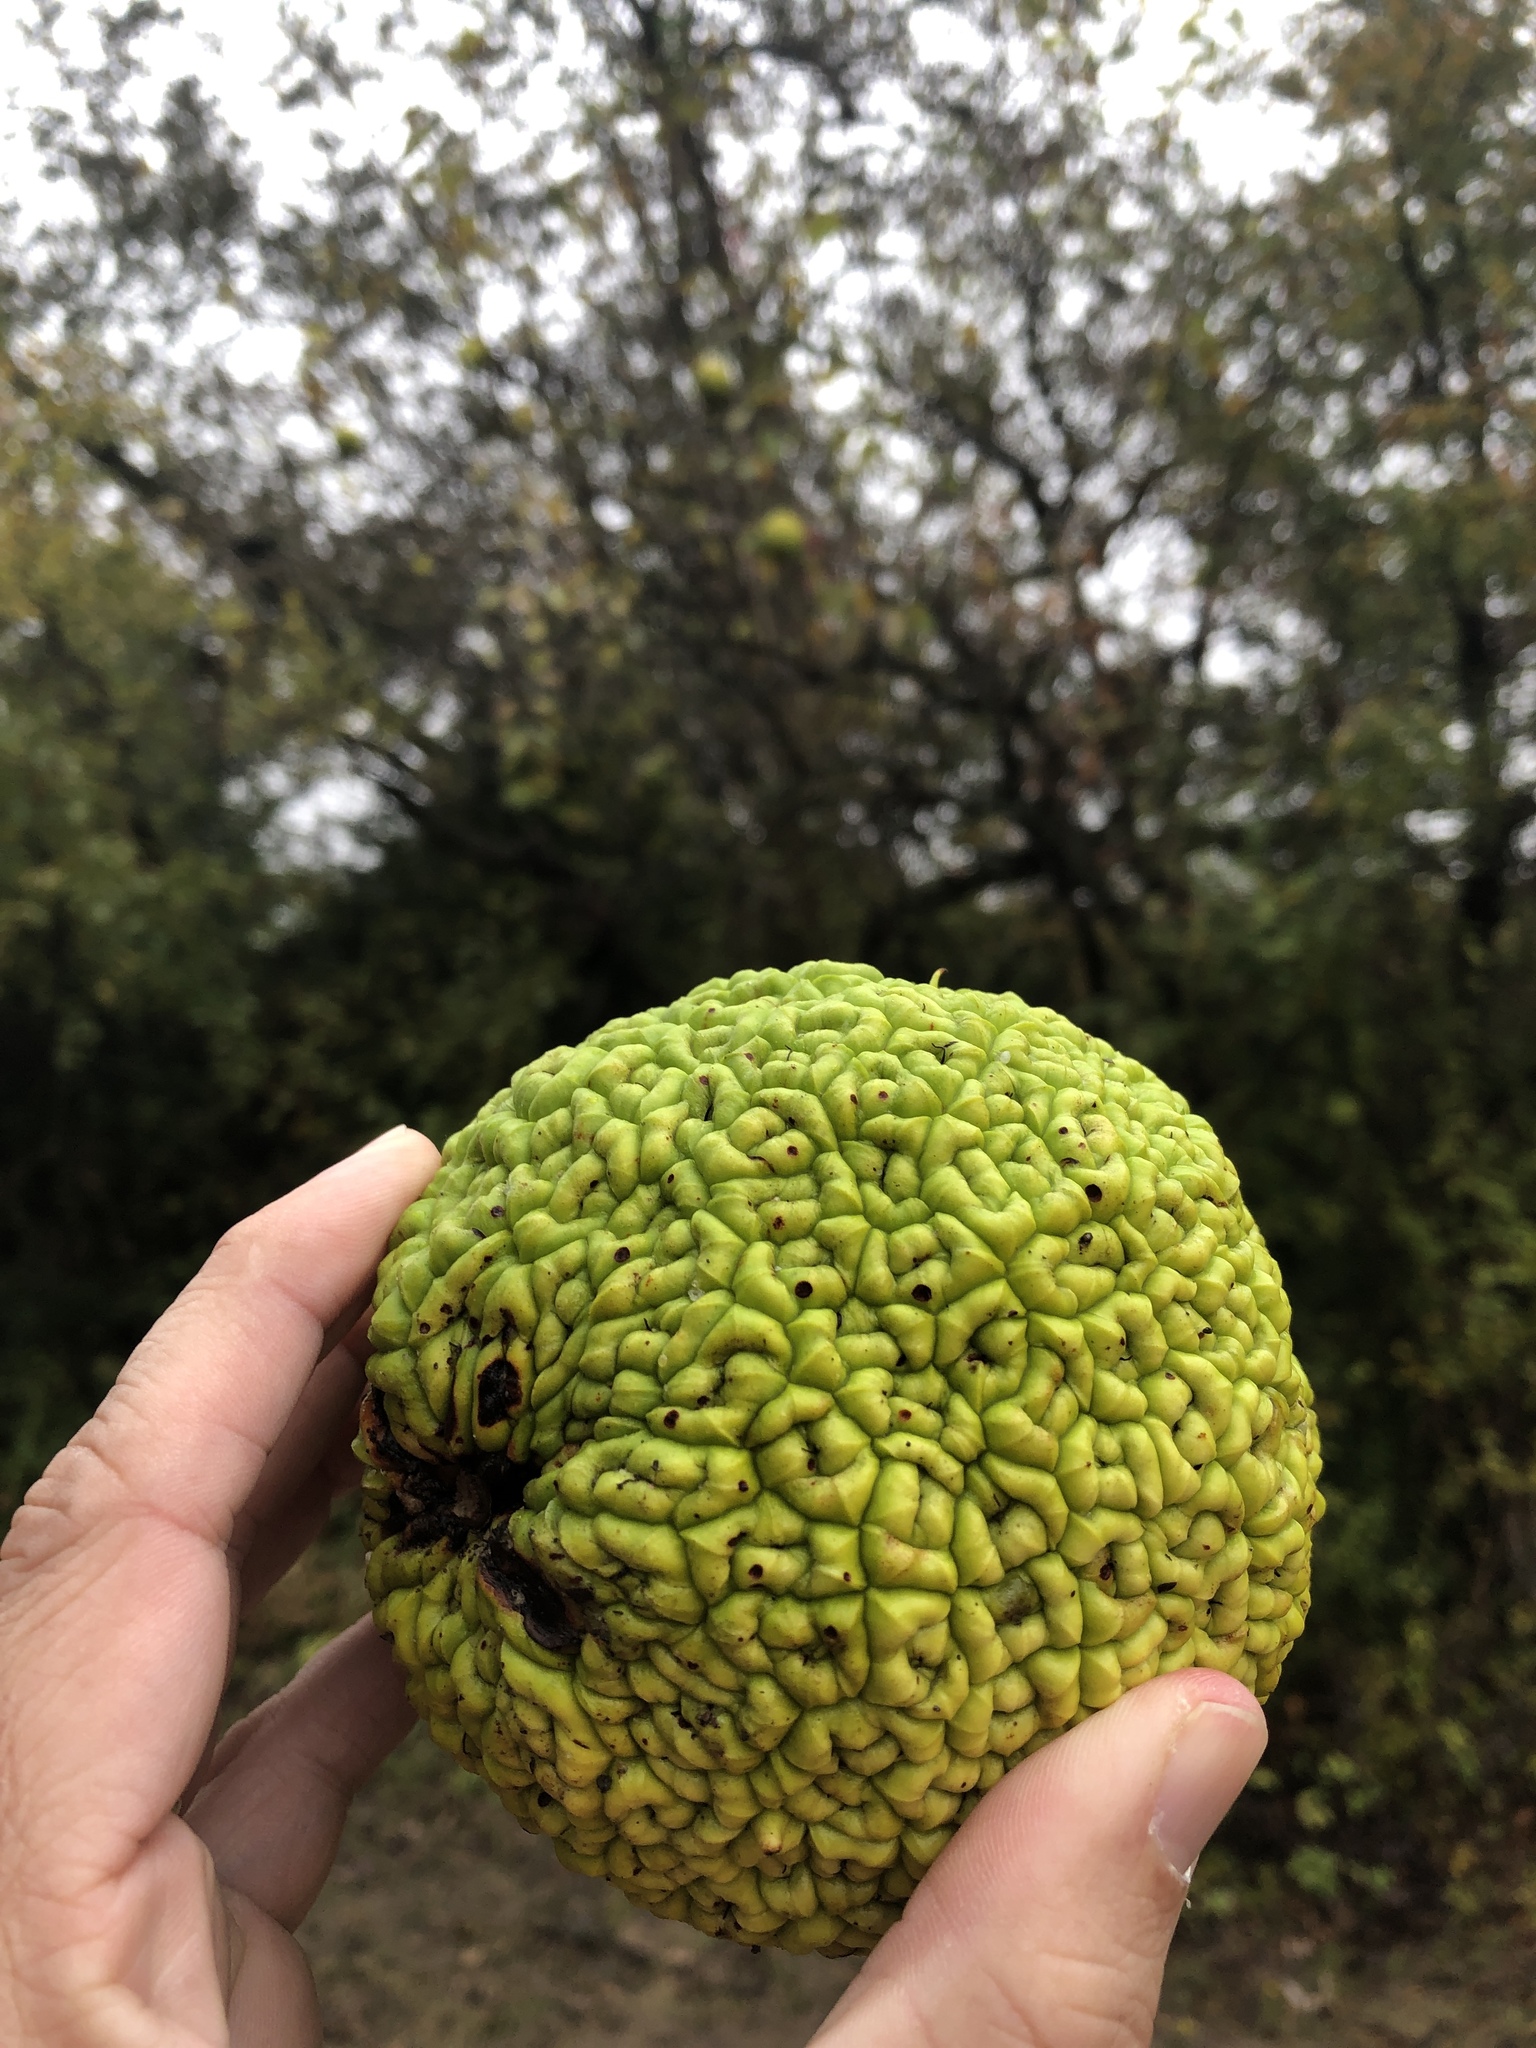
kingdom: Plantae
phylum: Tracheophyta
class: Magnoliopsida
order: Rosales
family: Moraceae
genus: Maclura
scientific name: Maclura pomifera
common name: Osage-orange
